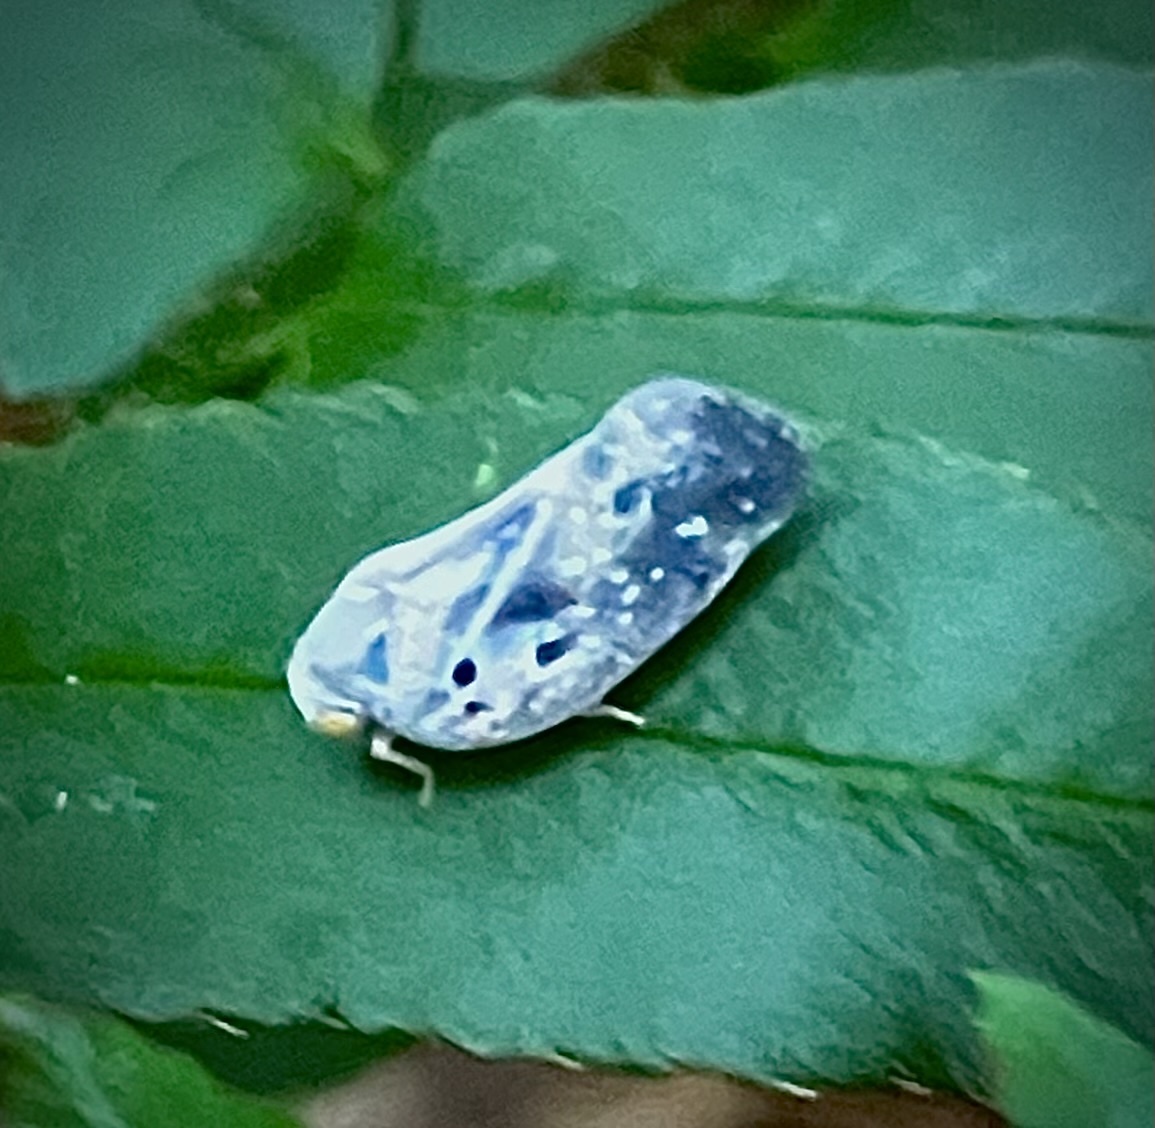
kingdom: Animalia
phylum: Arthropoda
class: Insecta
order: Hemiptera
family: Flatidae
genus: Metcalfa
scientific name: Metcalfa pruinosa
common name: Citrus flatid planthopper
